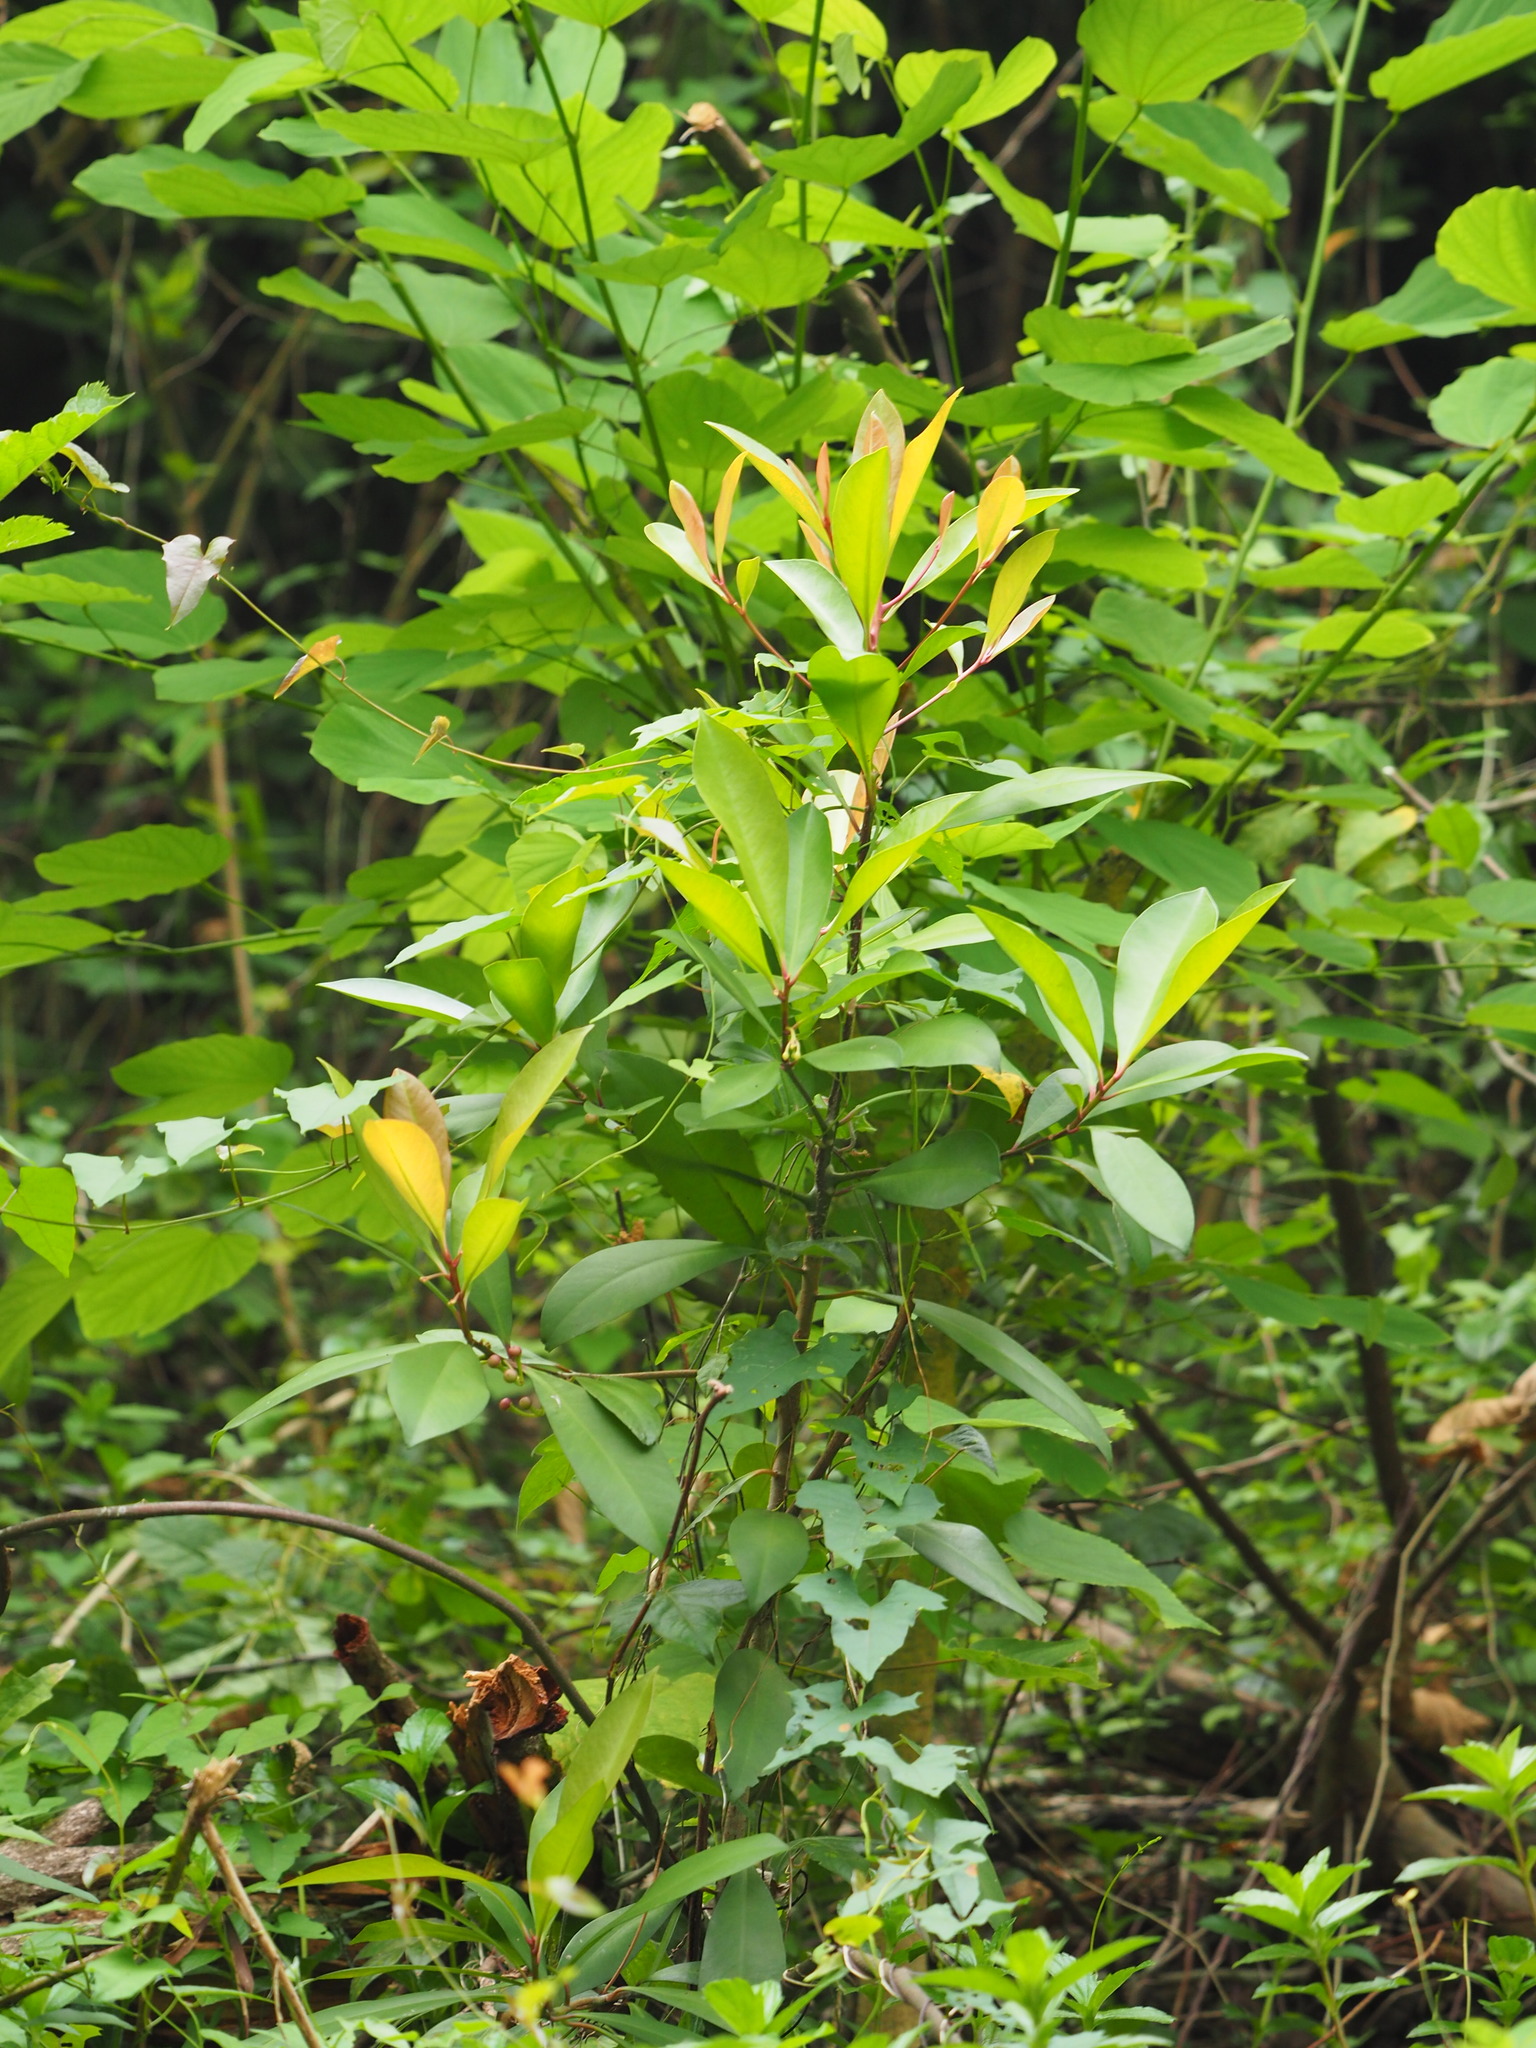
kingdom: Plantae
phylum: Tracheophyta
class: Magnoliopsida
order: Ericales
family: Primulaceae
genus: Ardisia
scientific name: Ardisia elliptica
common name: Shoebutton
